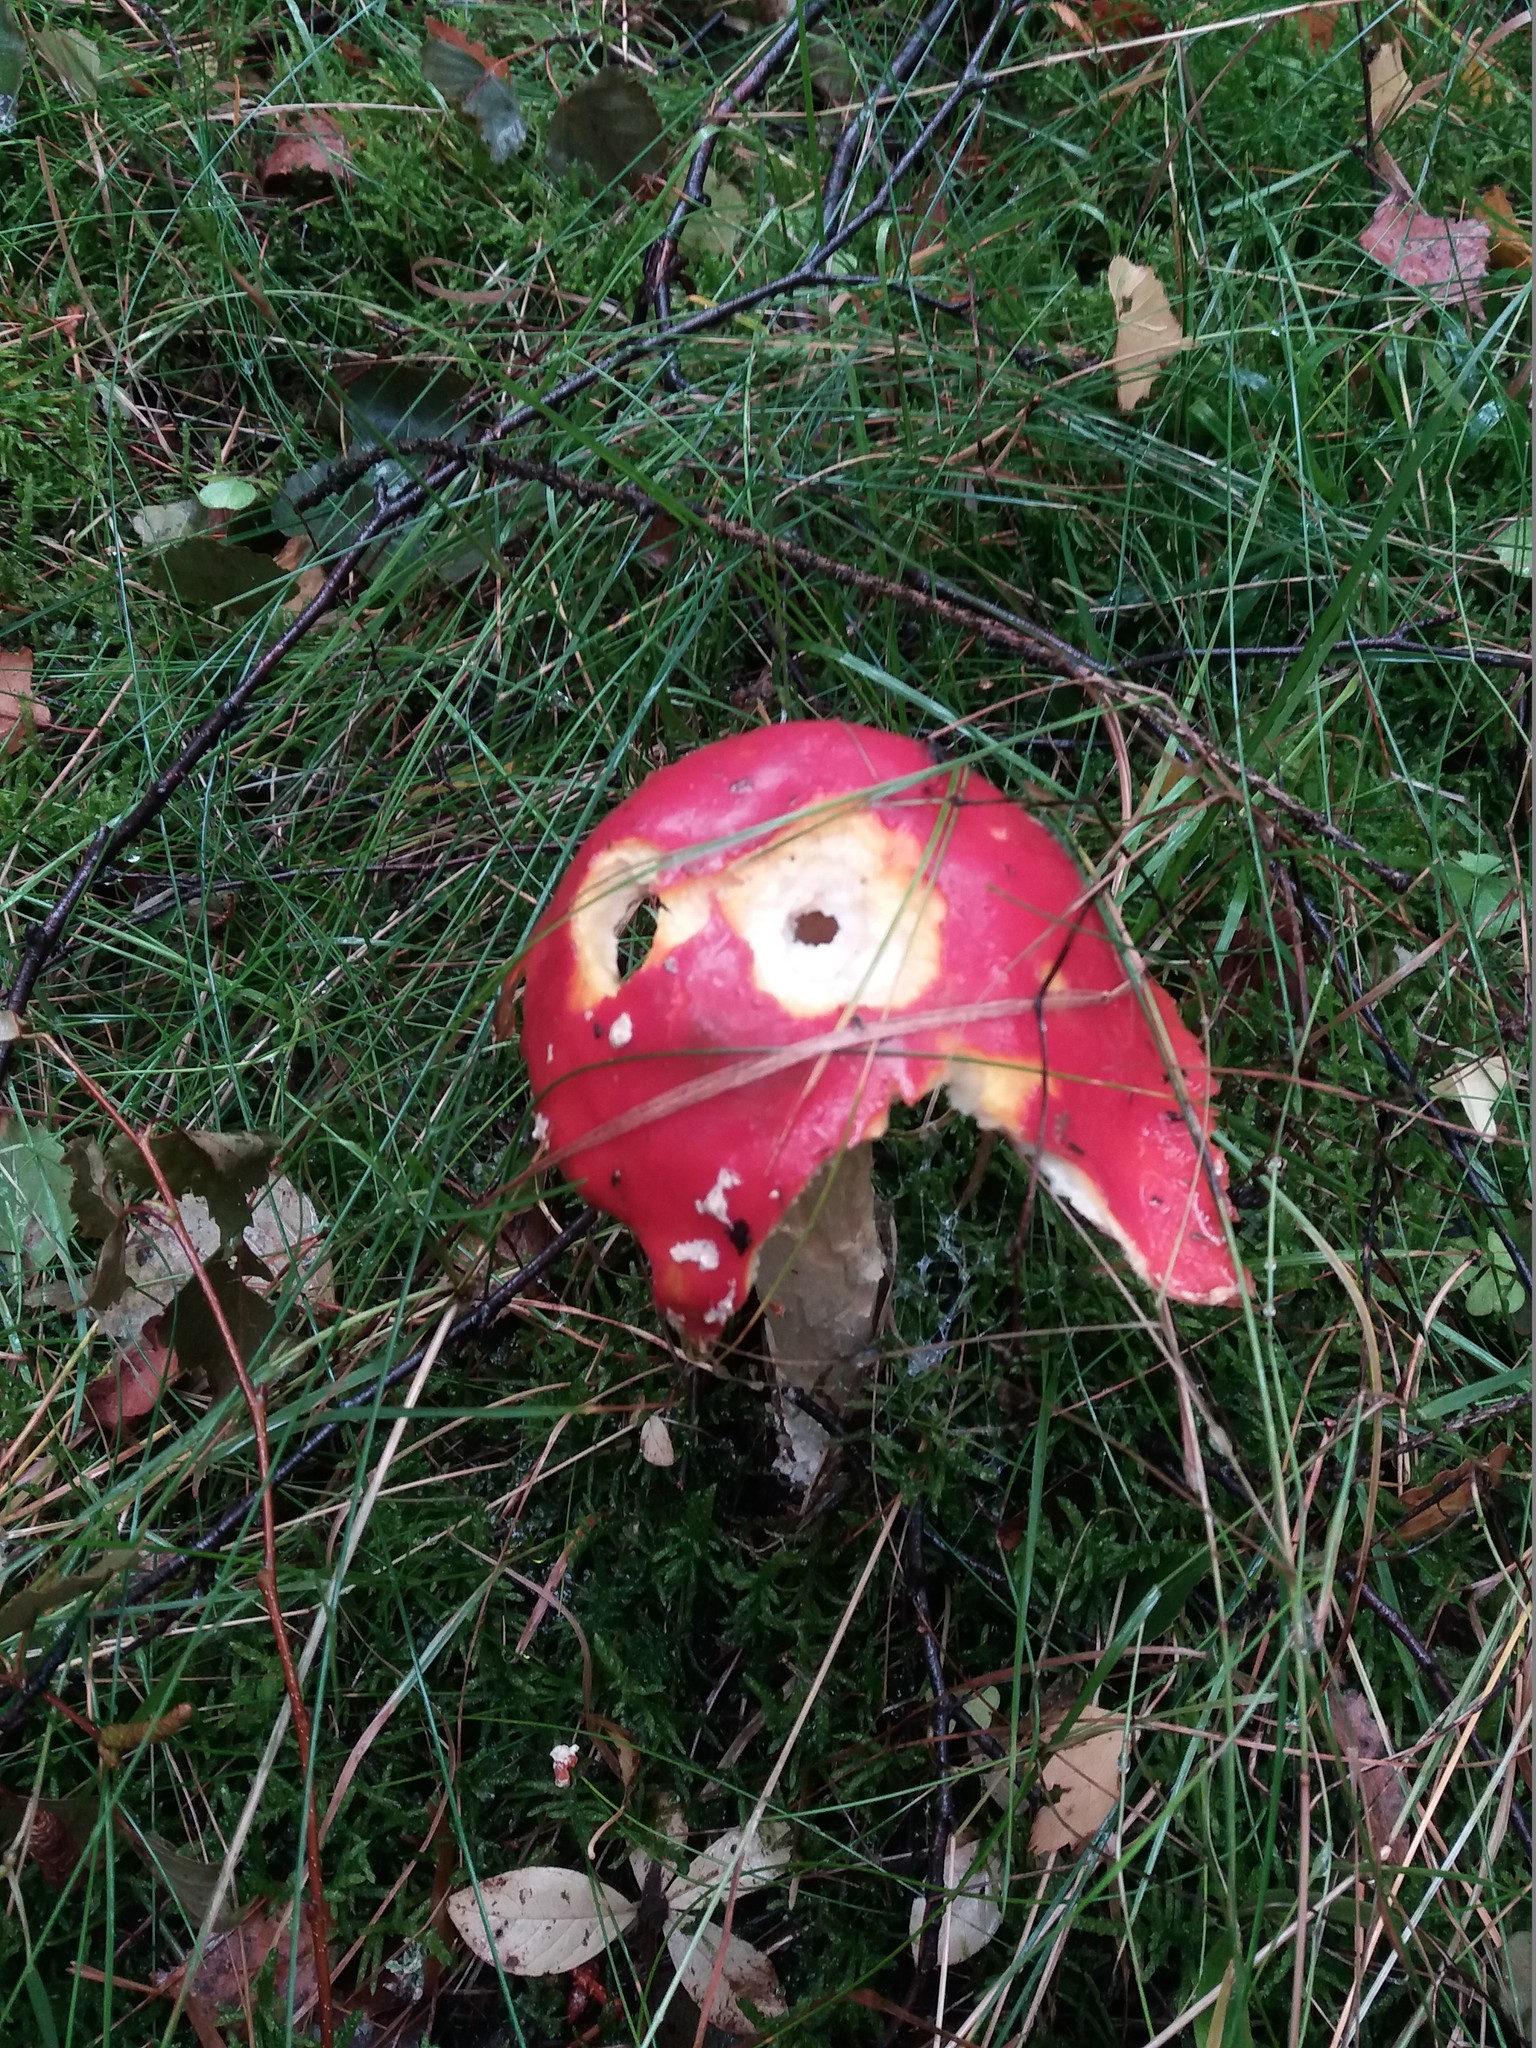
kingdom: Fungi
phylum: Basidiomycota
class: Agaricomycetes
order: Agaricales
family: Amanitaceae
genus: Amanita
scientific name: Amanita muscaria
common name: Fly agaric
